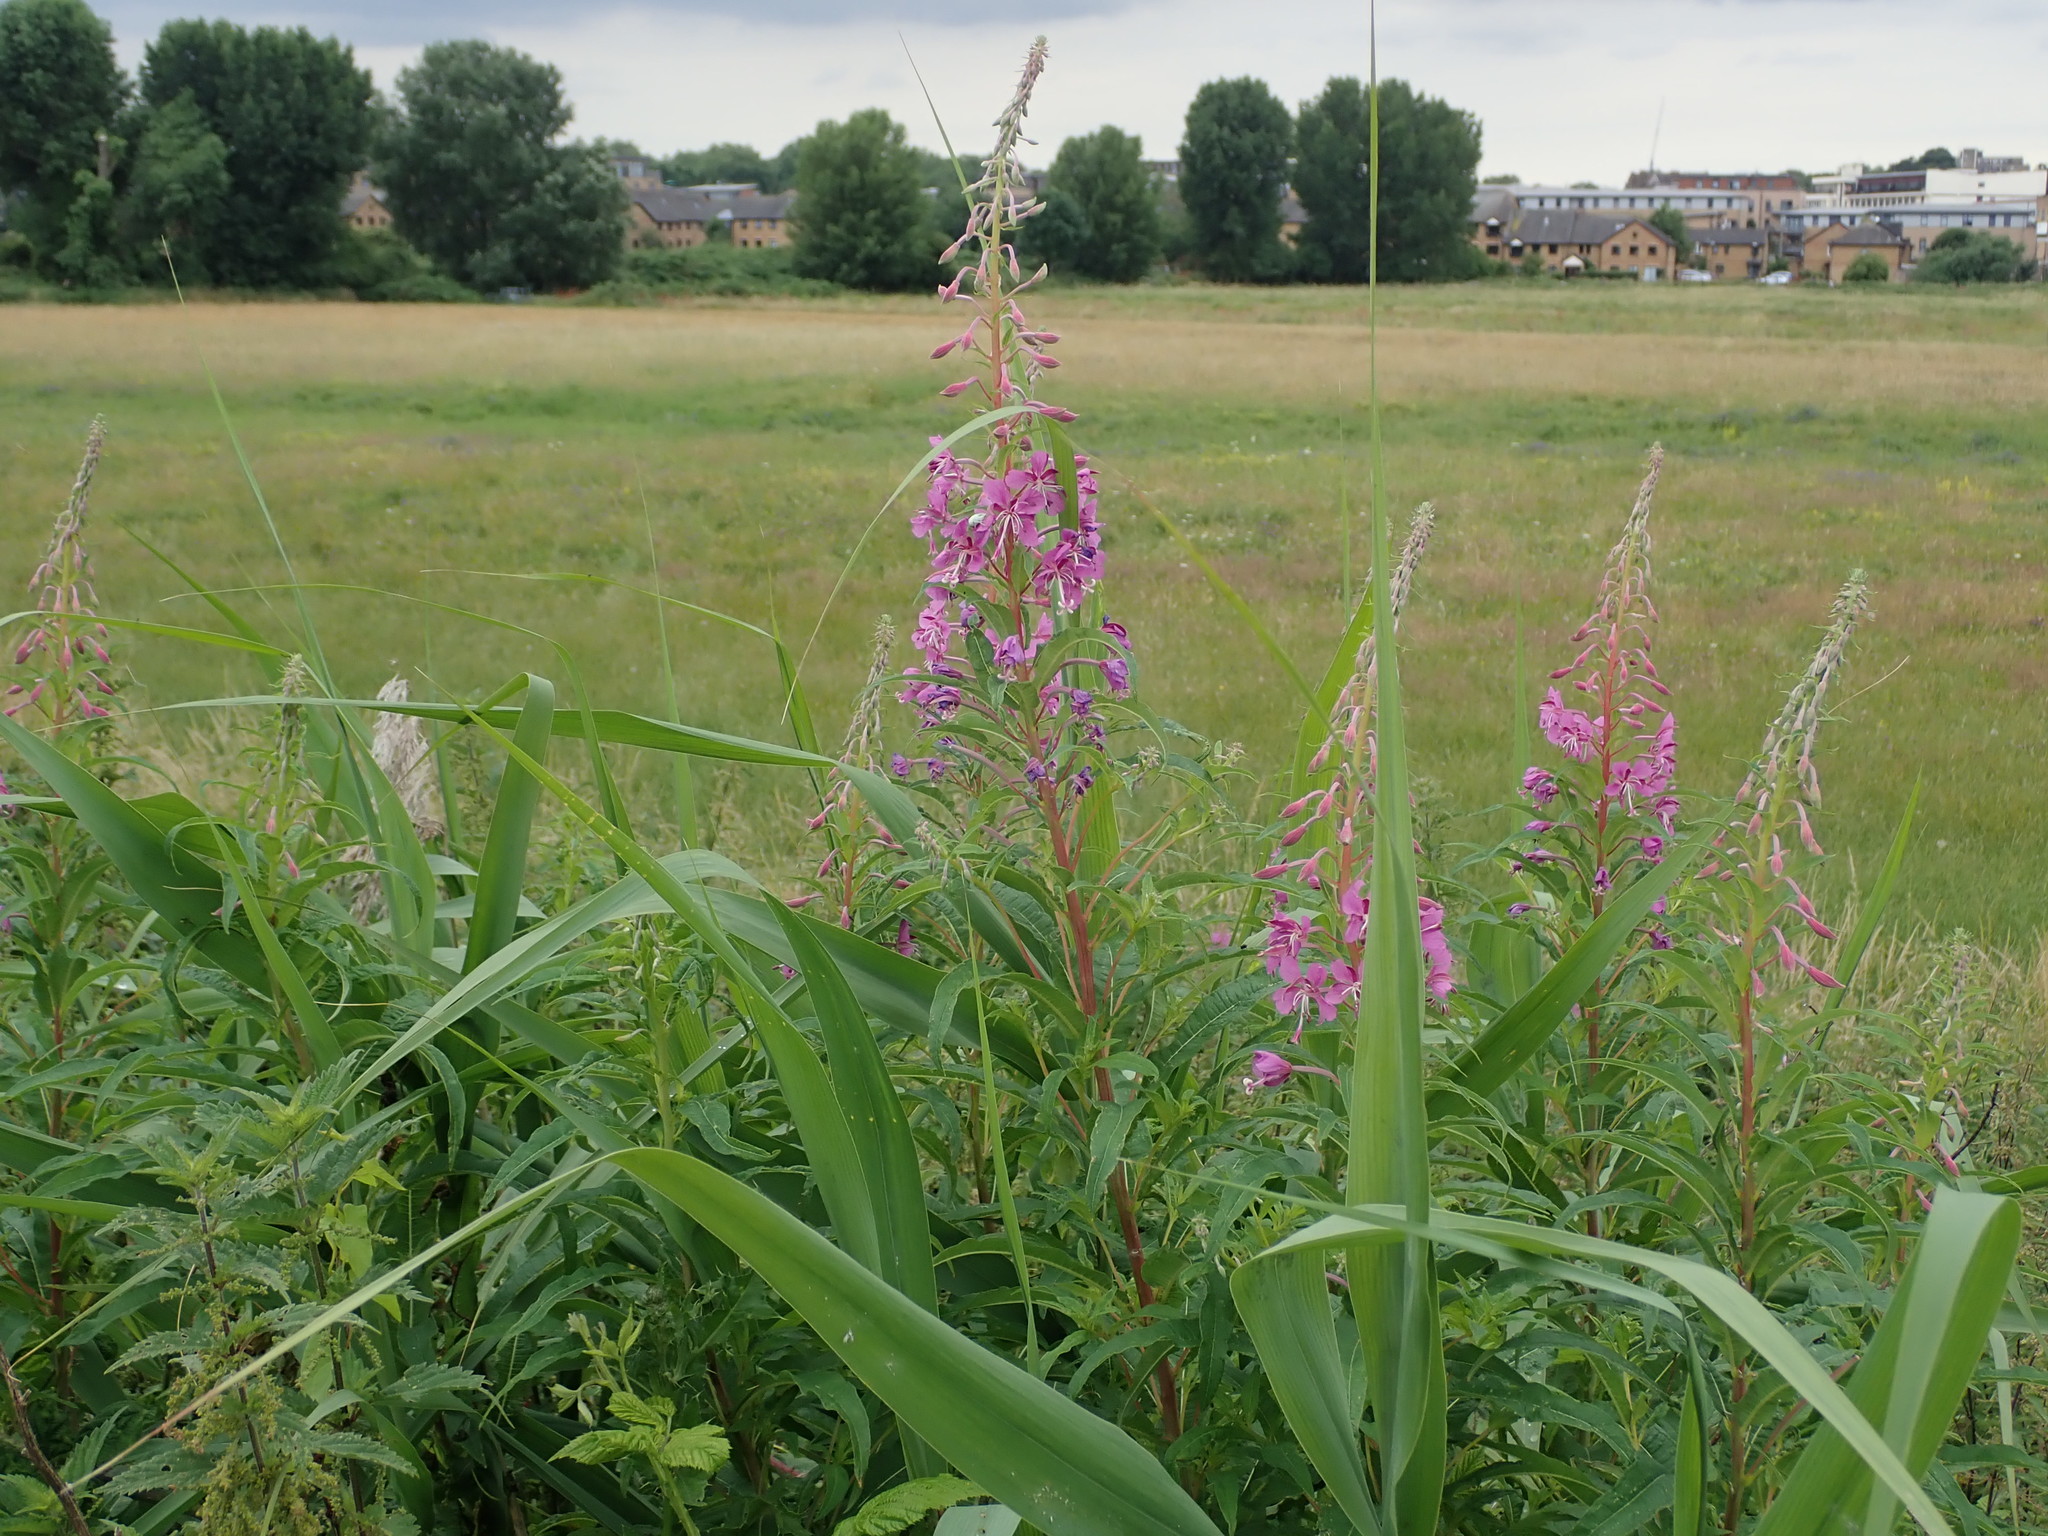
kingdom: Plantae
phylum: Tracheophyta
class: Magnoliopsida
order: Myrtales
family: Onagraceae
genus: Chamaenerion
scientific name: Chamaenerion angustifolium
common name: Fireweed
